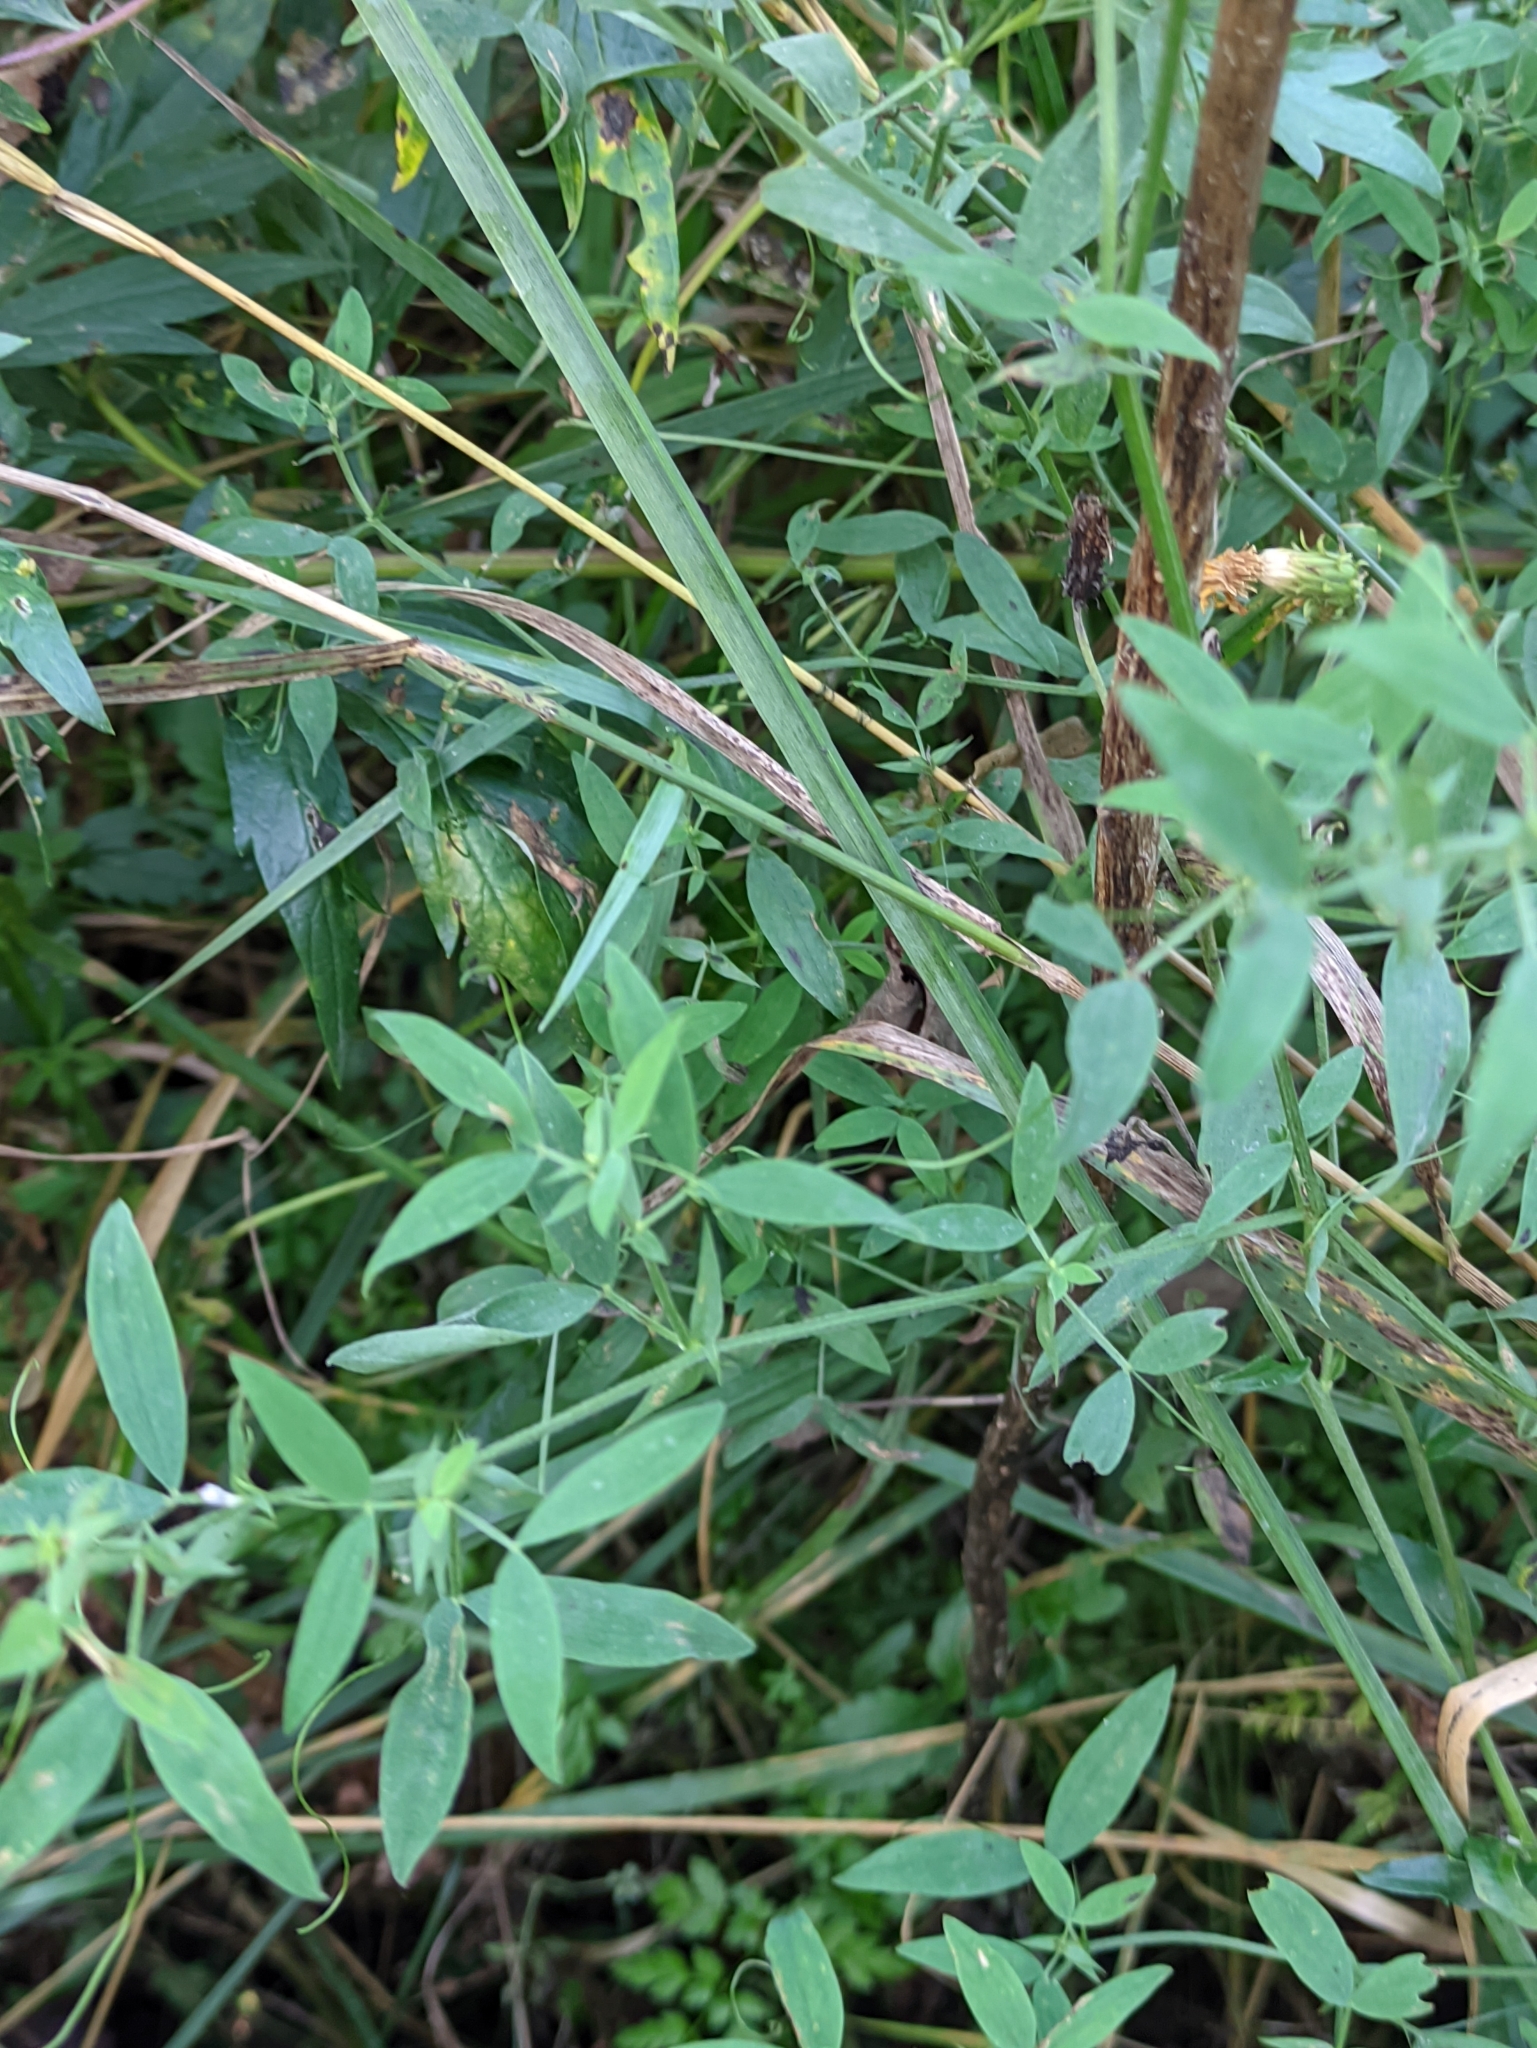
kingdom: Plantae
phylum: Tracheophyta
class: Magnoliopsida
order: Fabales
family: Fabaceae
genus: Lathyrus
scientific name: Lathyrus pratensis
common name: Meadow vetchling
